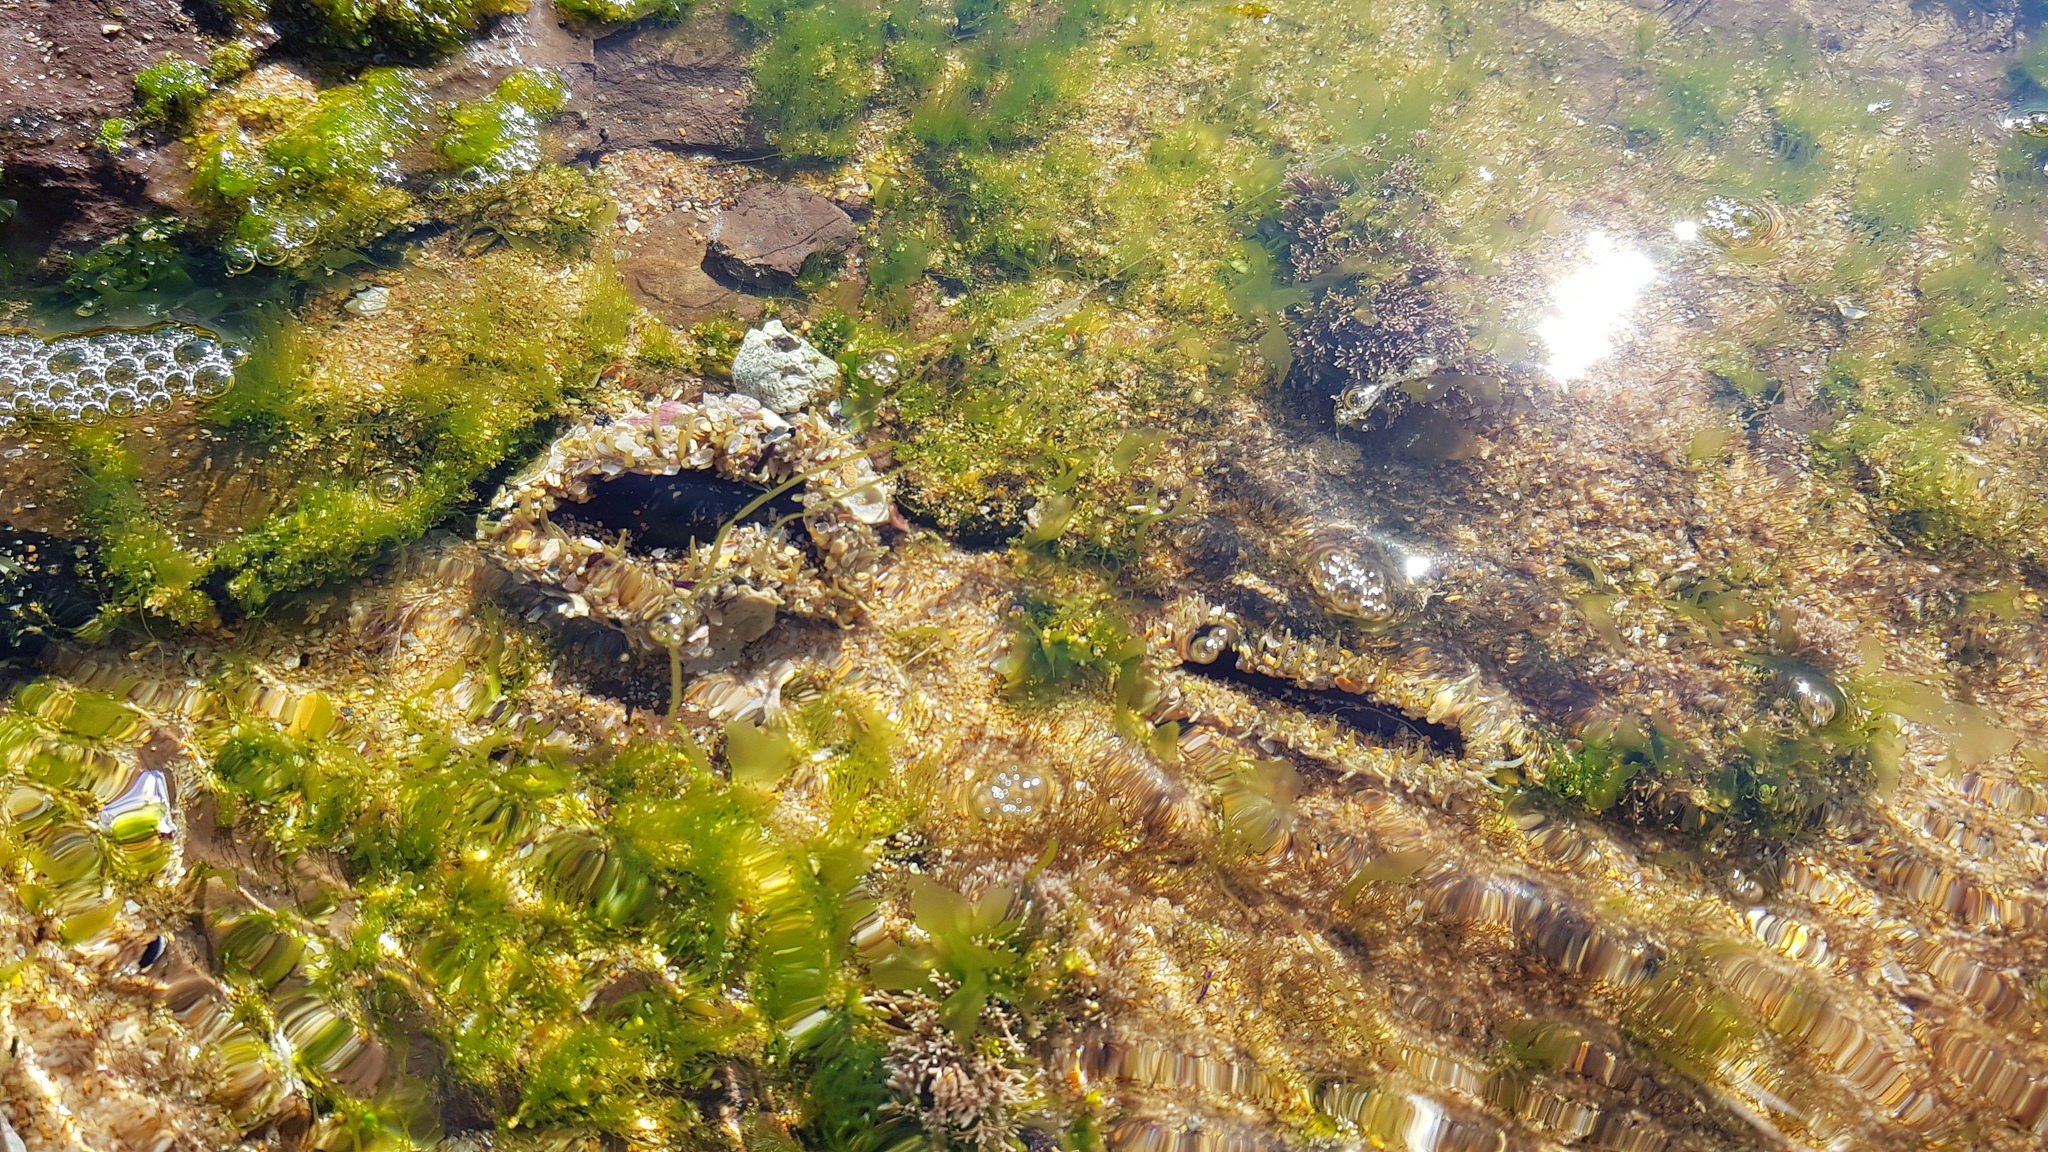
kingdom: Animalia
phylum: Cnidaria
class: Anthozoa
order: Actiniaria
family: Actiniidae
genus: Oulactis
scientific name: Oulactis muscosa
